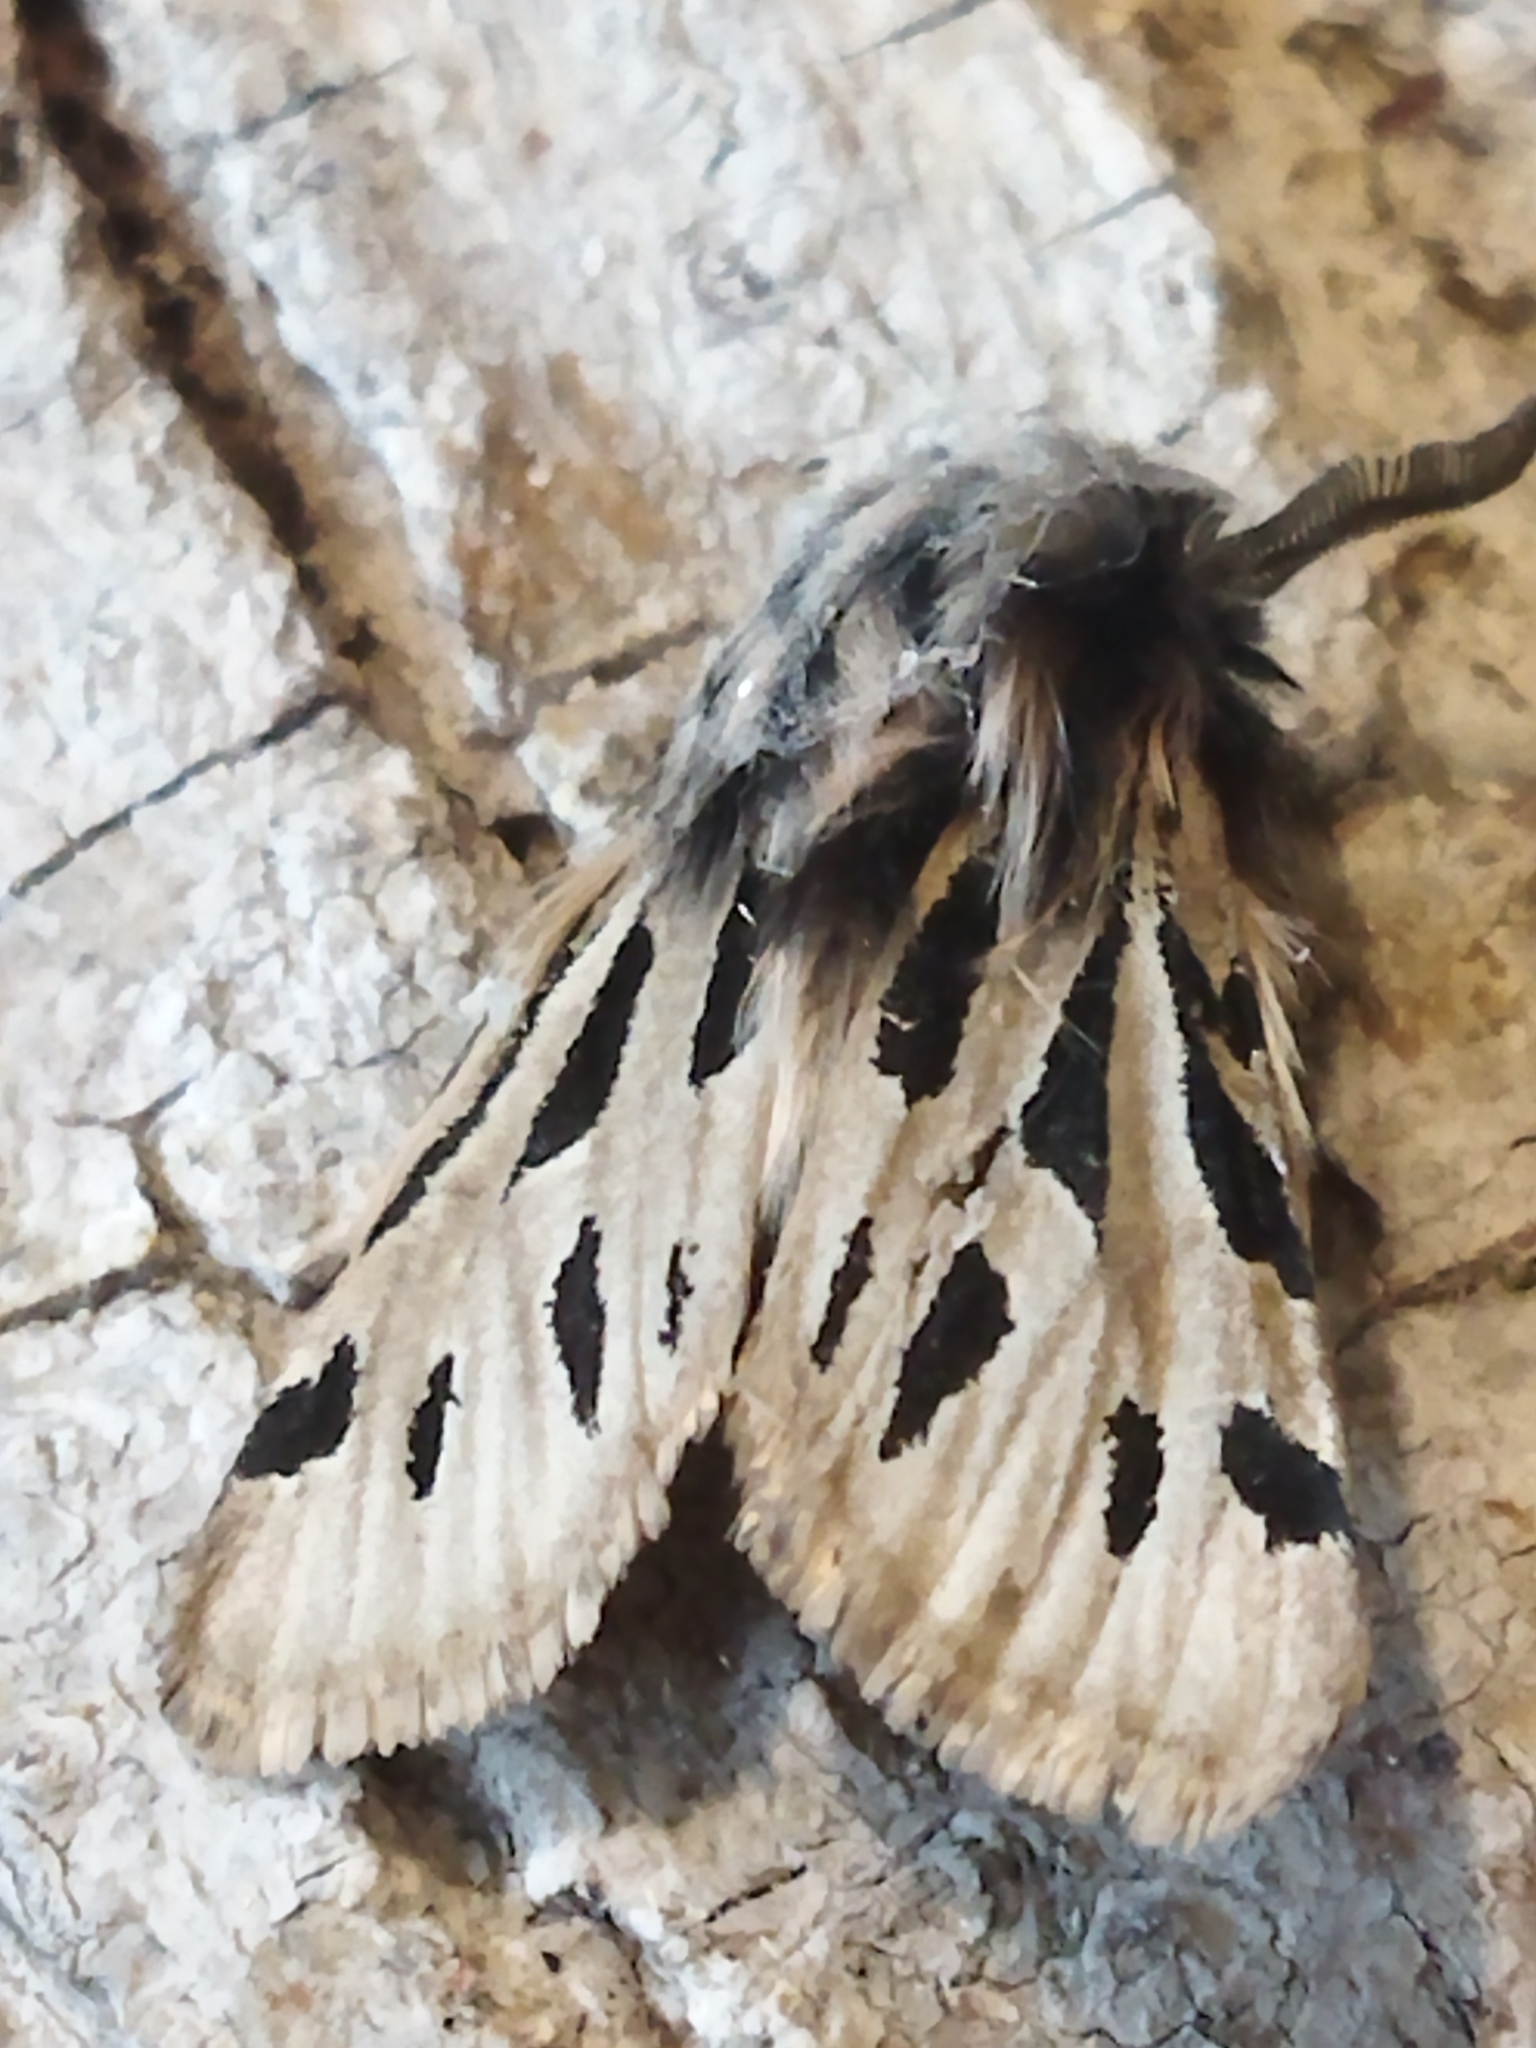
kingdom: Animalia
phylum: Arthropoda
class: Insecta
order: Lepidoptera
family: Erebidae
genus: Ocnogyna
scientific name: Ocnogyna parasita
